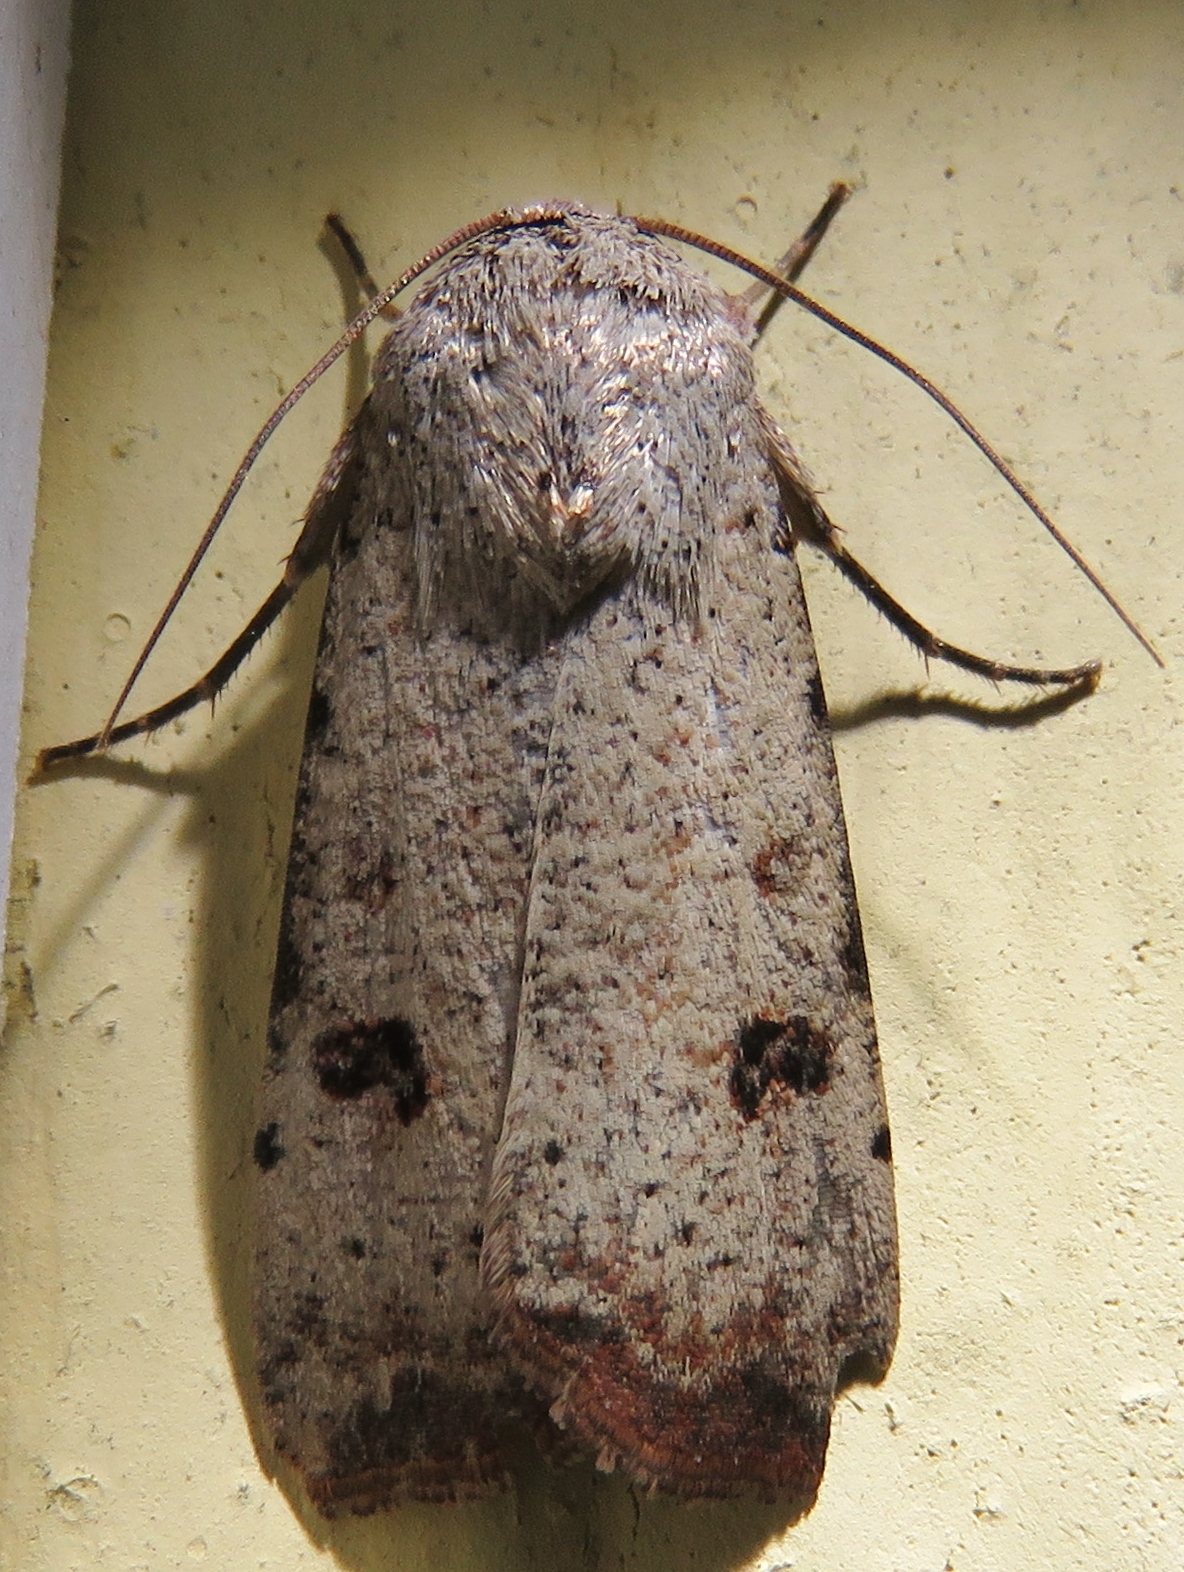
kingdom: Animalia
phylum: Arthropoda
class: Insecta
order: Lepidoptera
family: Noctuidae
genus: Anicla
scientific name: Anicla infecta
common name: Green cutworm
